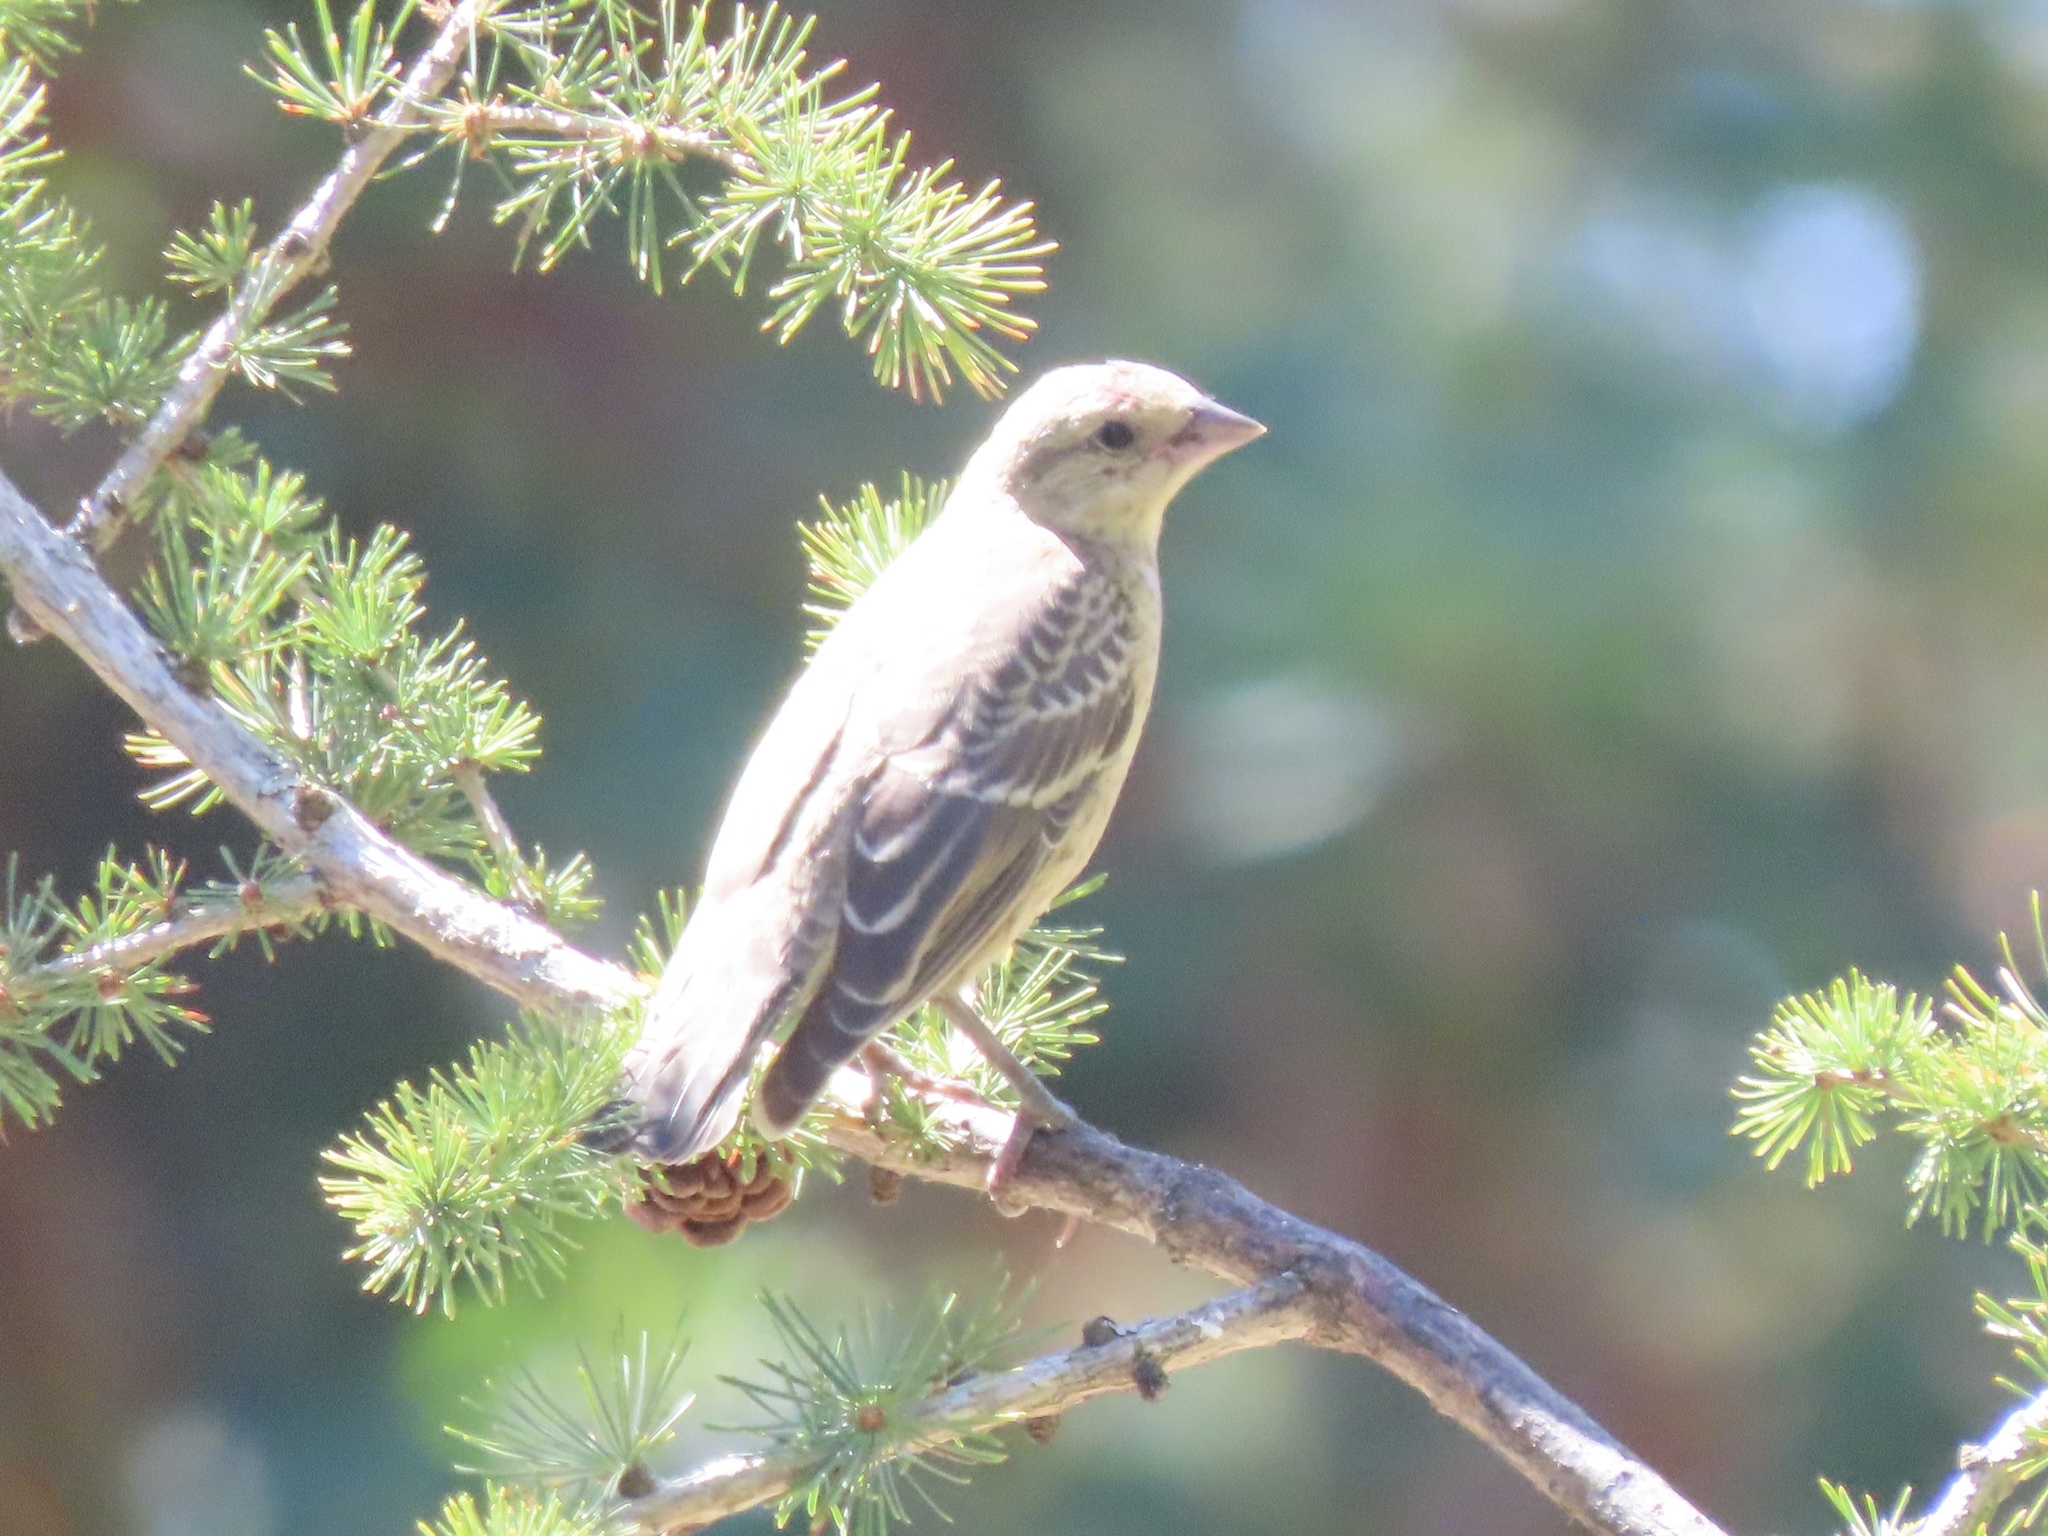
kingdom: Animalia
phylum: Chordata
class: Aves
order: Passeriformes
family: Icteridae
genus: Molothrus
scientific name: Molothrus ater
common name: Brown-headed cowbird
